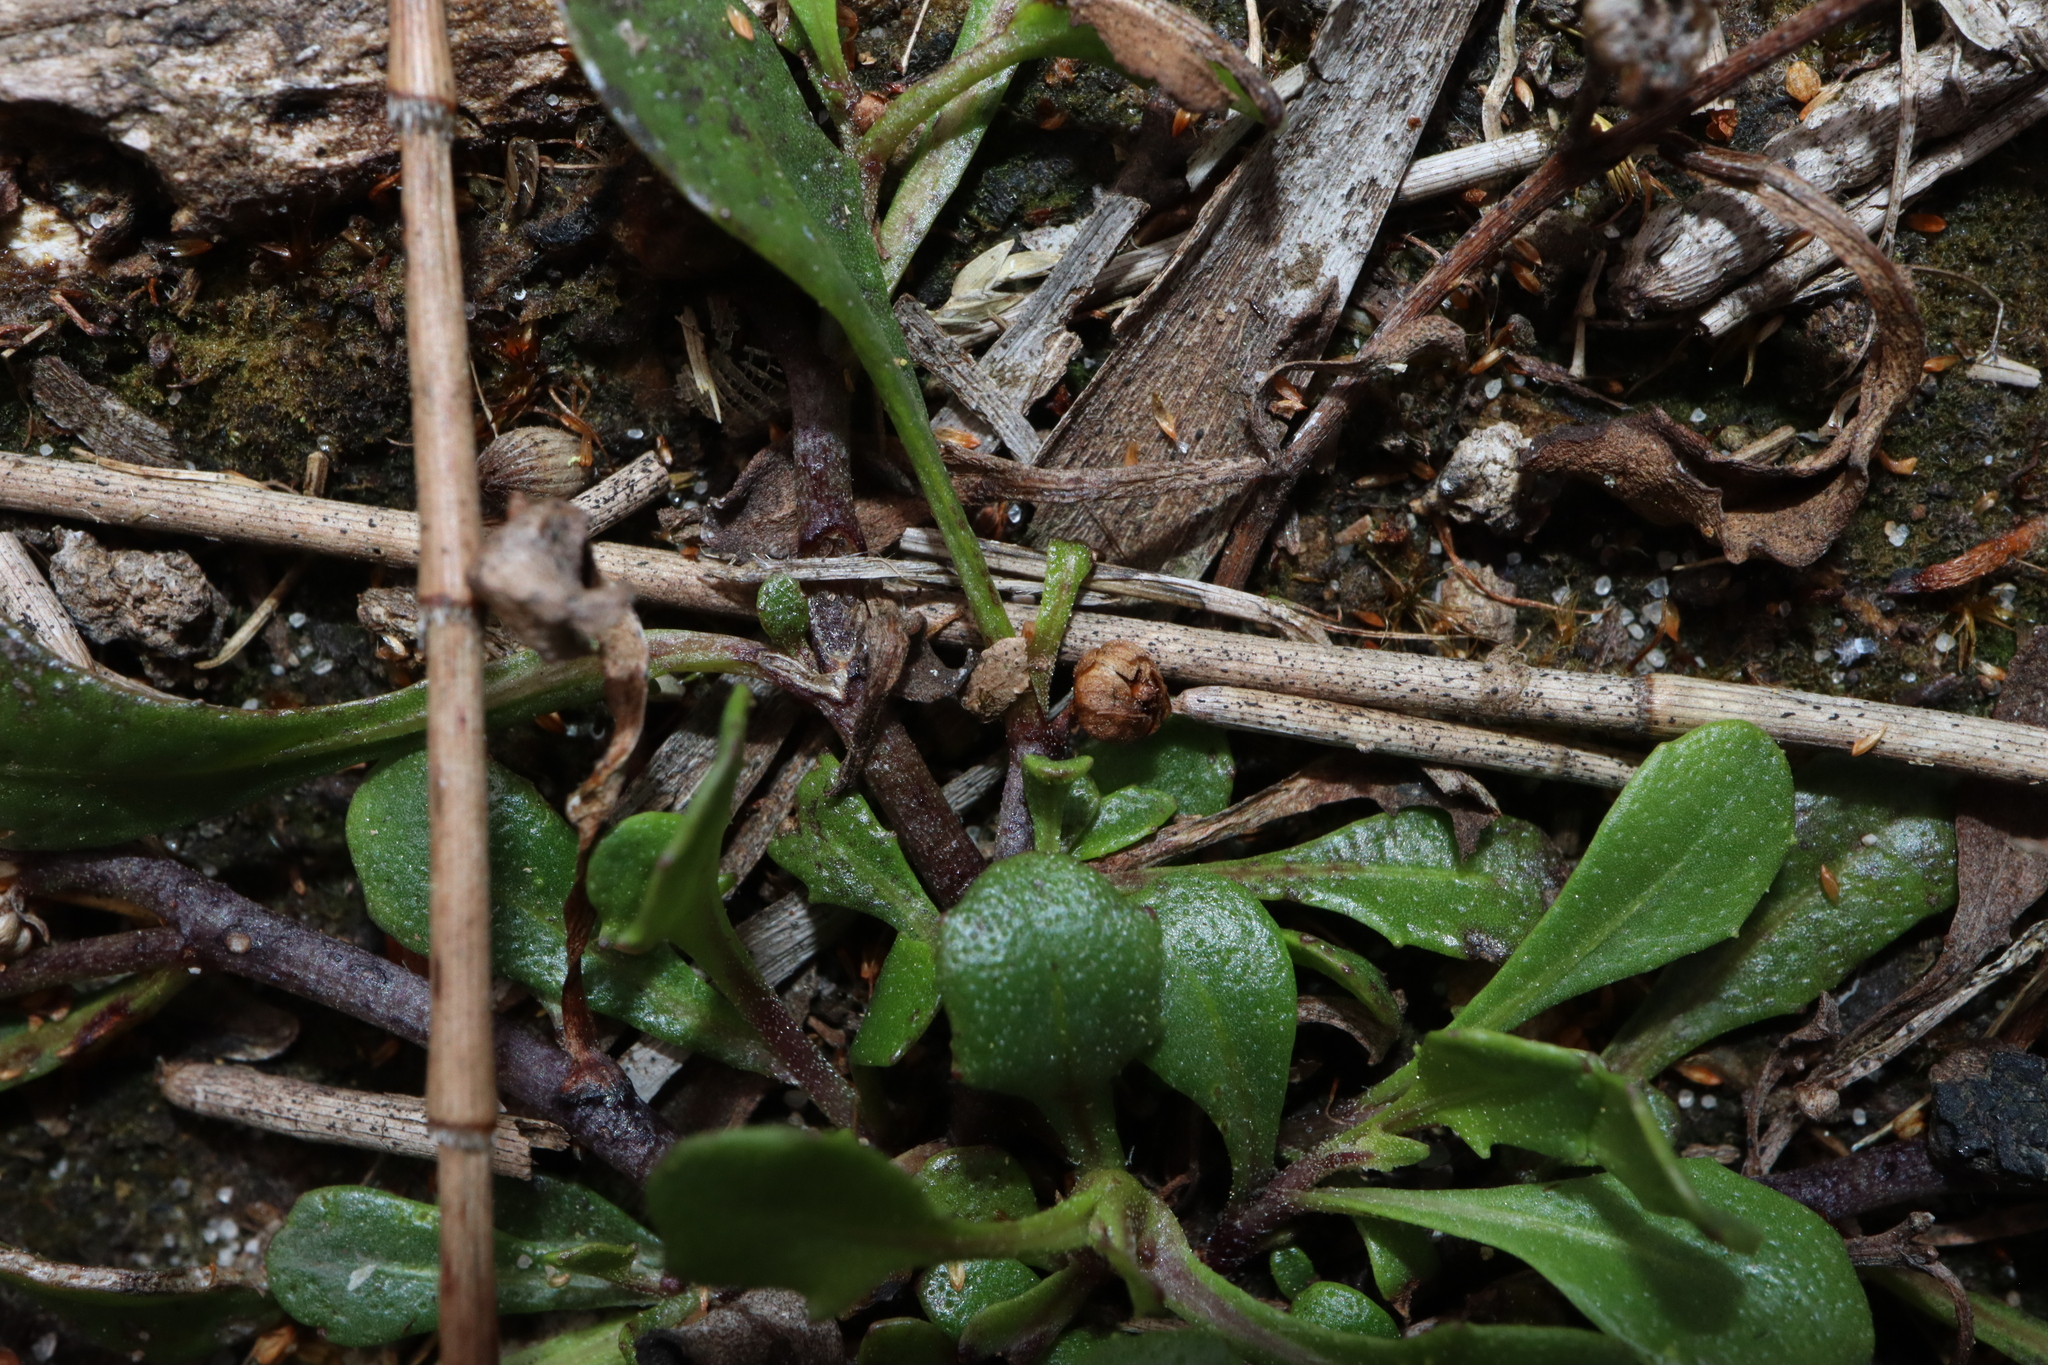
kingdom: Plantae
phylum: Tracheophyta
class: Magnoliopsida
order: Asterales
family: Asteraceae
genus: Sphaeromorphaea
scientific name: Sphaeromorphaea australis
